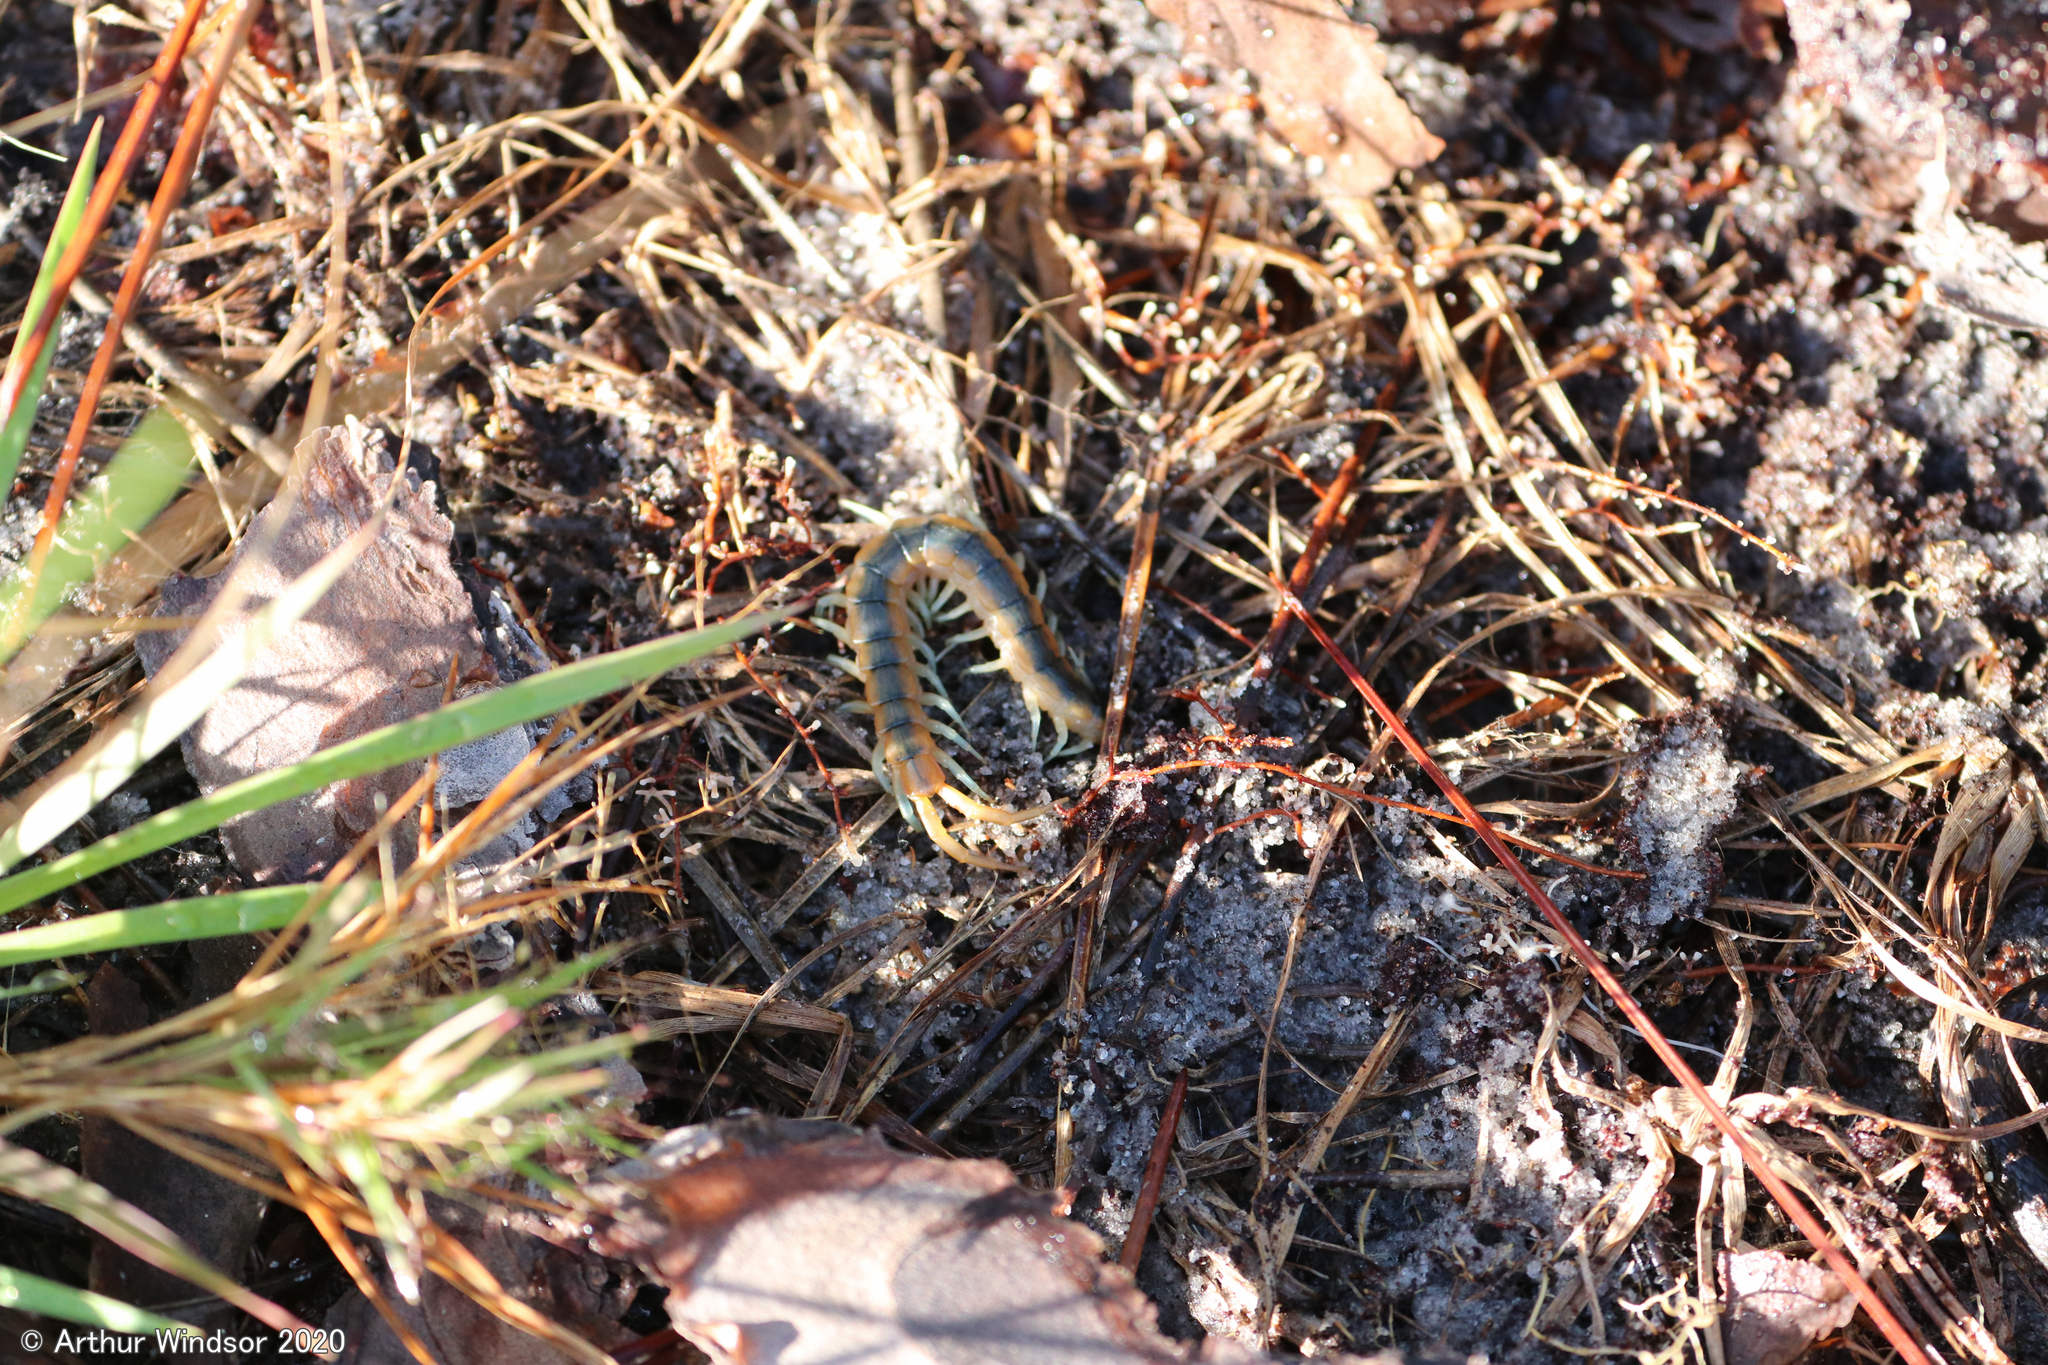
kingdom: Animalia
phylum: Arthropoda
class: Chilopoda
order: Scolopendromorpha
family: Scolopendridae
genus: Scolopendra
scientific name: Scolopendra viridis
